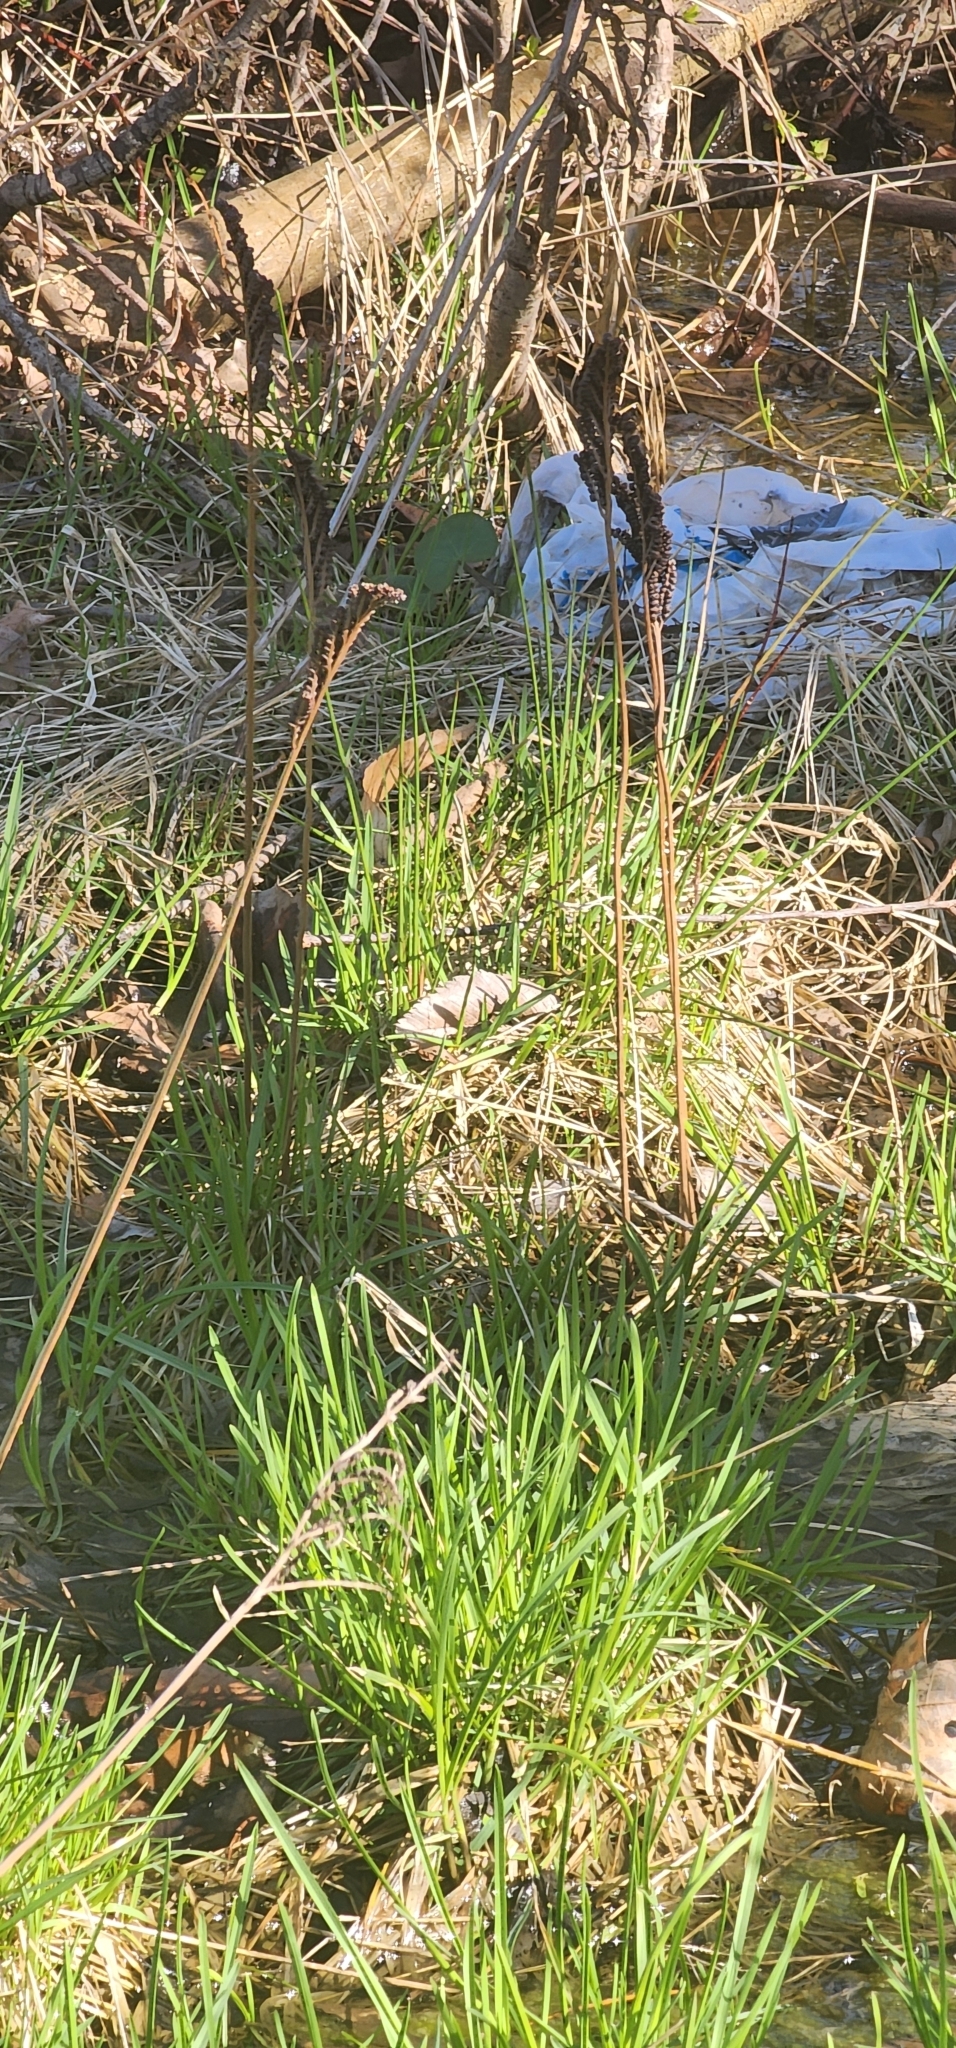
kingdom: Plantae
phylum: Tracheophyta
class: Polypodiopsida
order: Polypodiales
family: Onocleaceae
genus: Onoclea
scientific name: Onoclea sensibilis
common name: Sensitive fern
